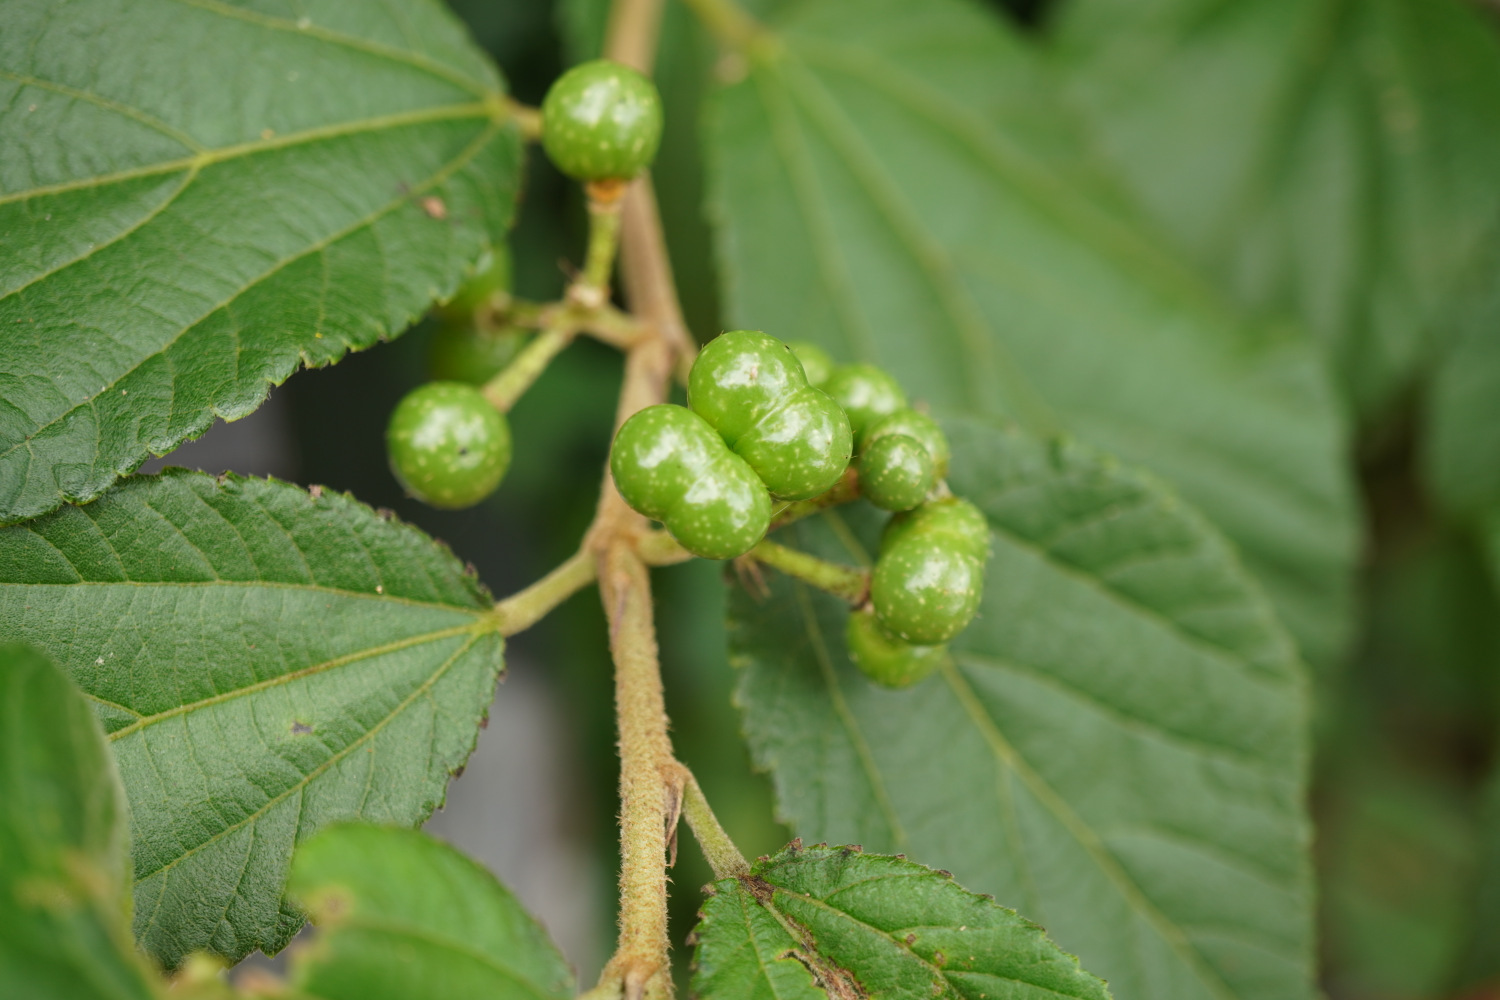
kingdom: Plantae
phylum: Tracheophyta
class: Magnoliopsida
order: Malvales
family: Malvaceae
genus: Grewia
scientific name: Grewia biloba
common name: Bilobed grewia
